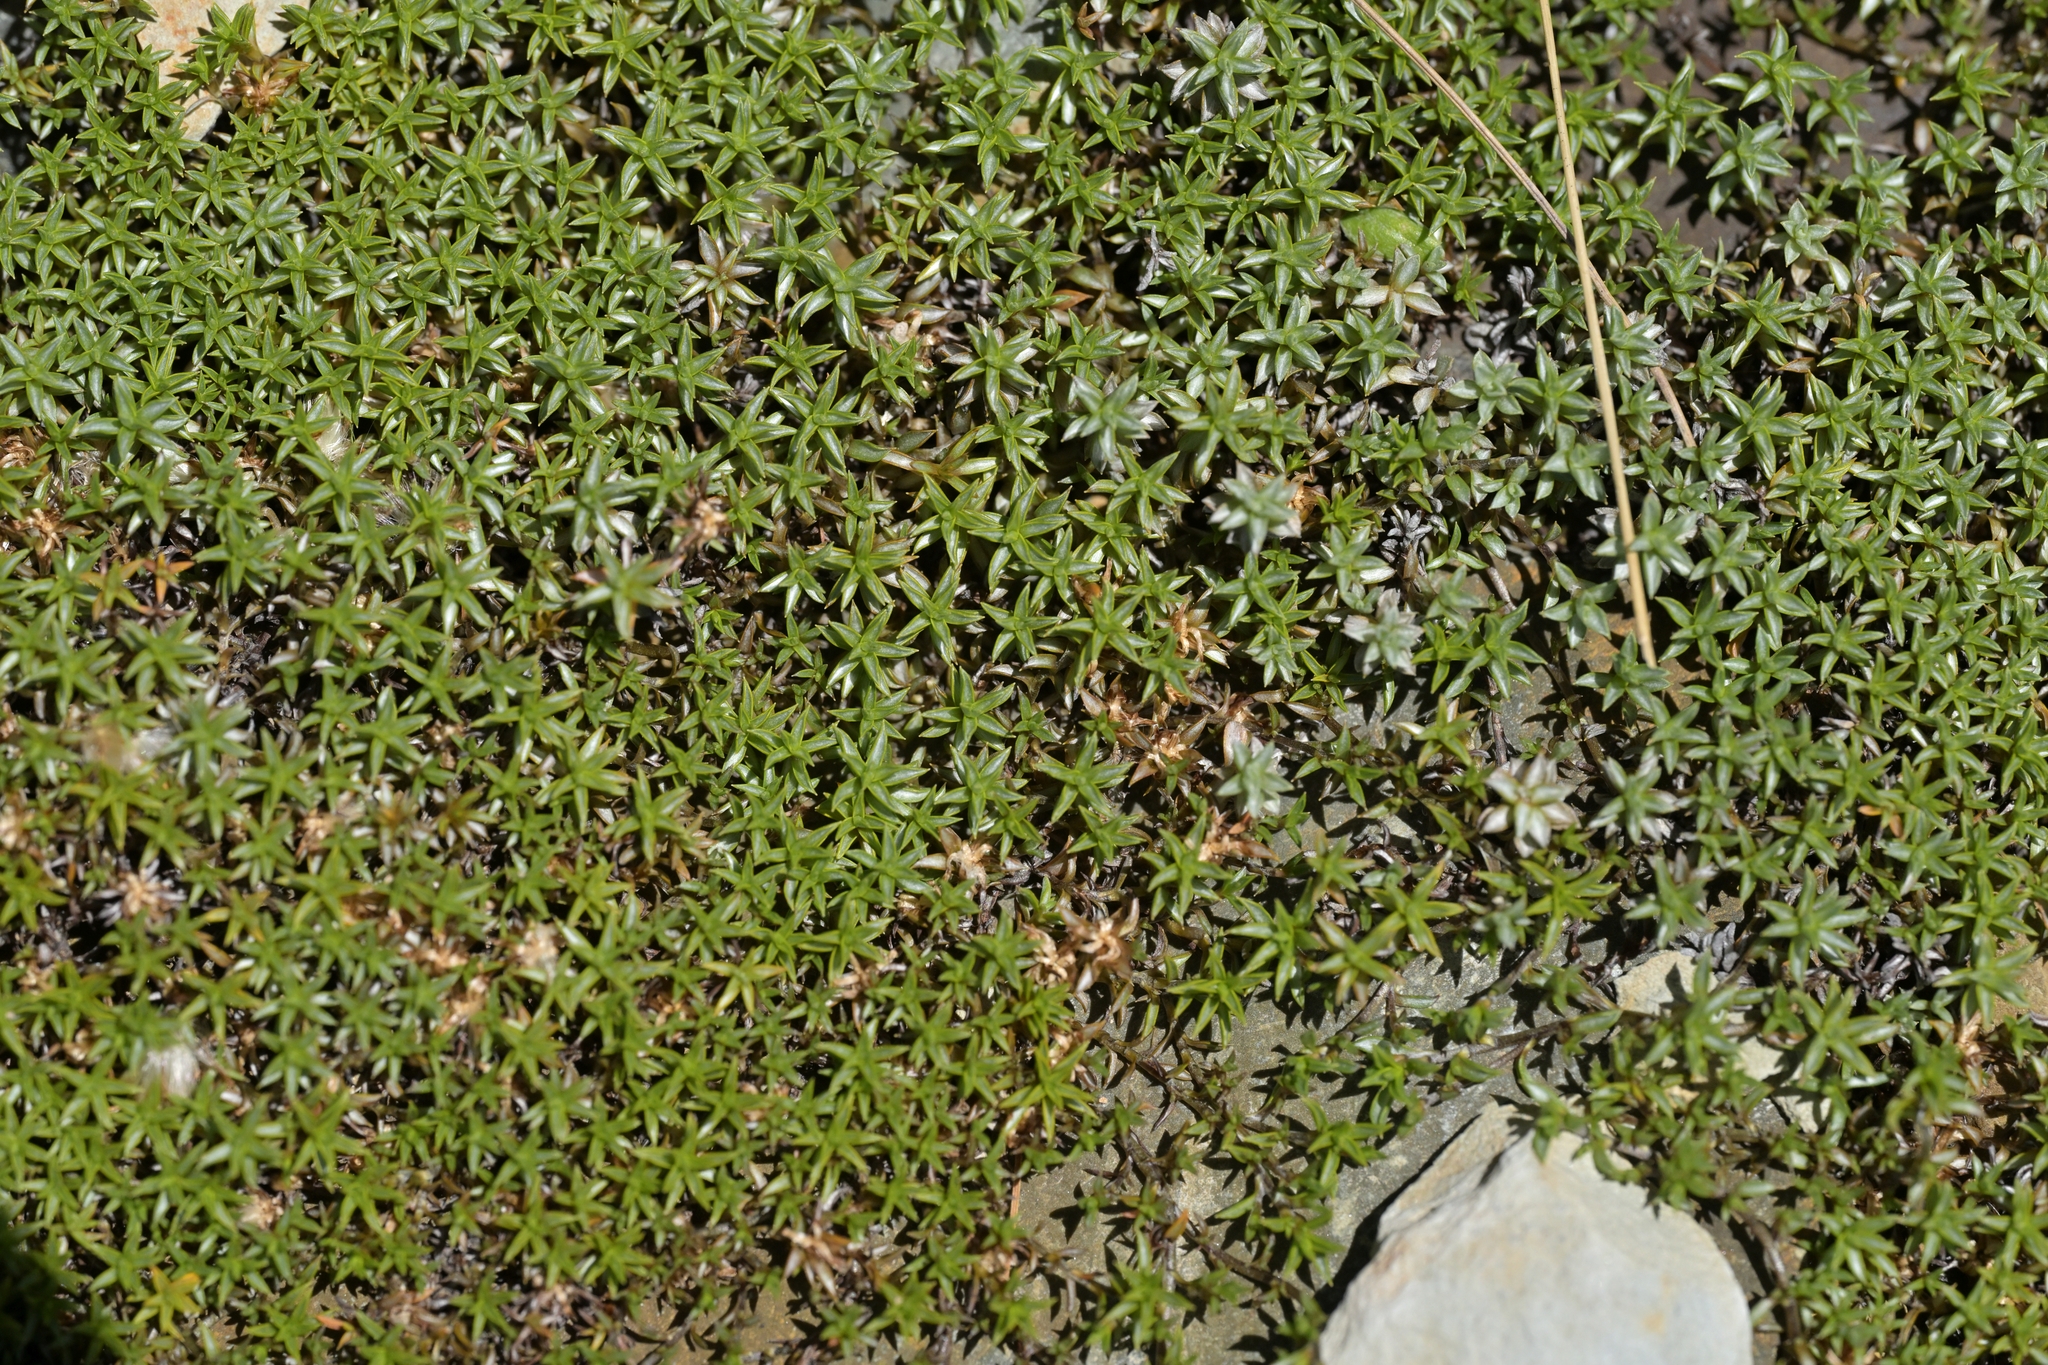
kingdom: Plantae
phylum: Tracheophyta
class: Magnoliopsida
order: Asterales
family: Asteraceae
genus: Raoulia
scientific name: Raoulia tenuicaulis
